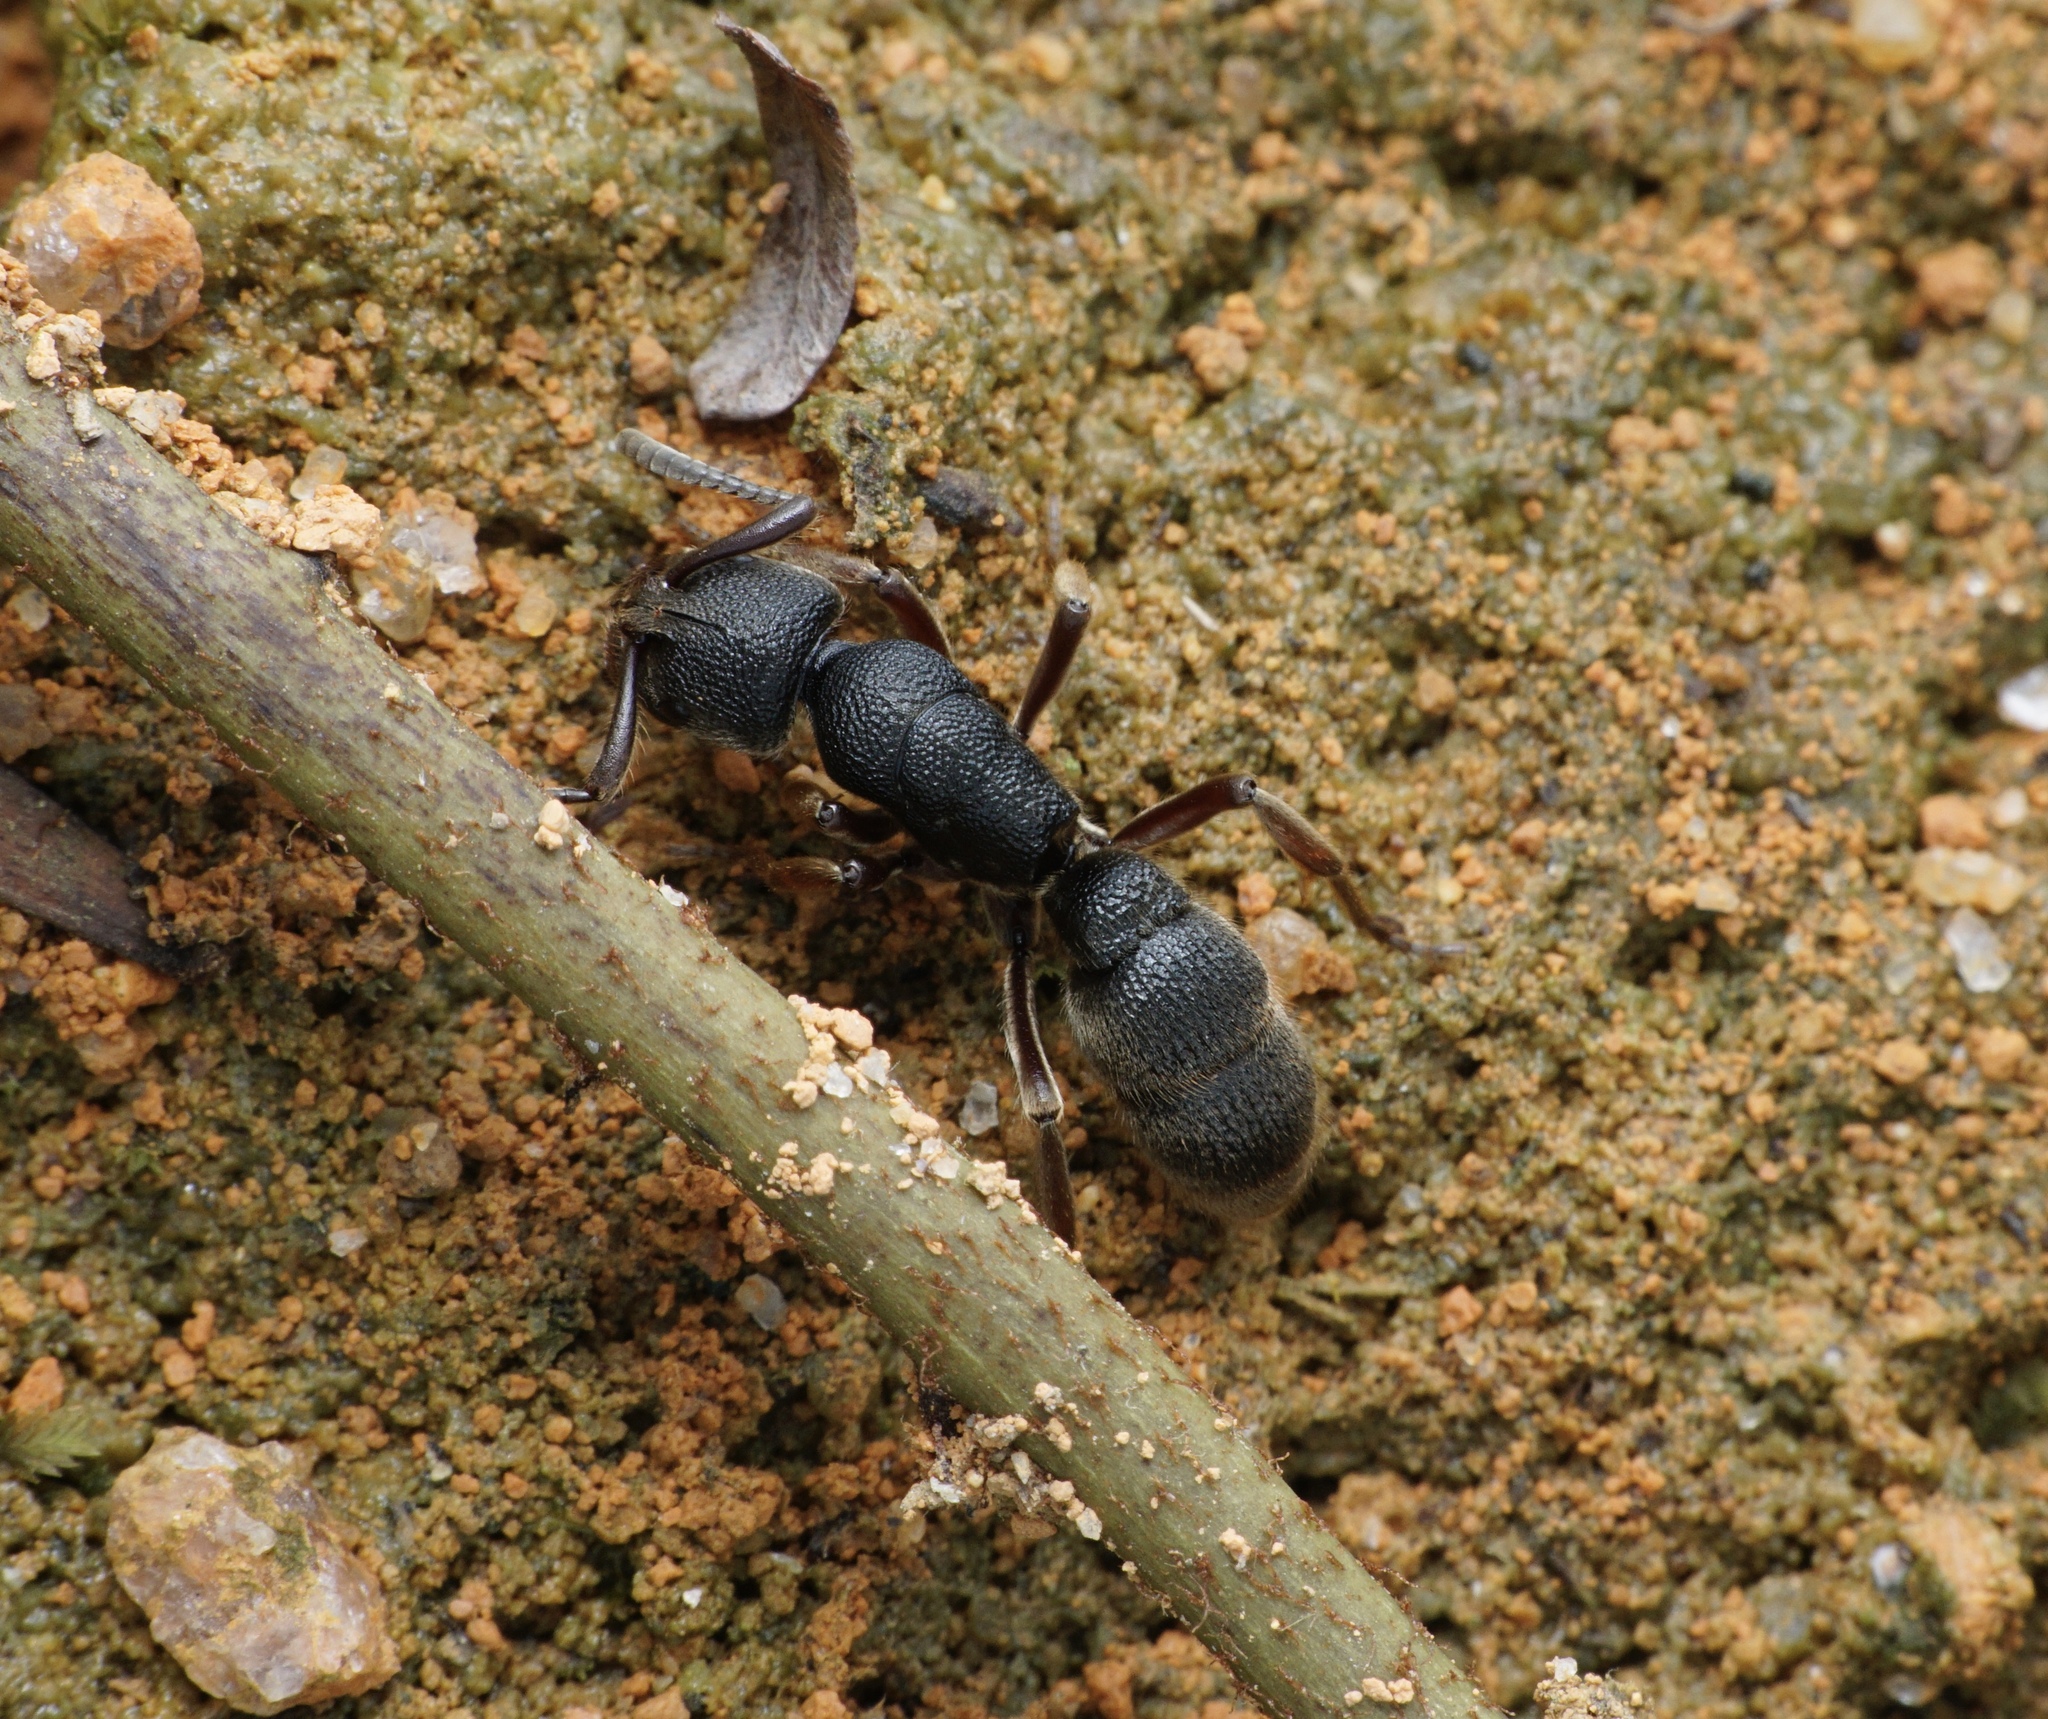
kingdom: Animalia
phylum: Arthropoda
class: Insecta
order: Hymenoptera
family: Formicidae
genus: Pseudoneoponera
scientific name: Pseudoneoponera rufipes
